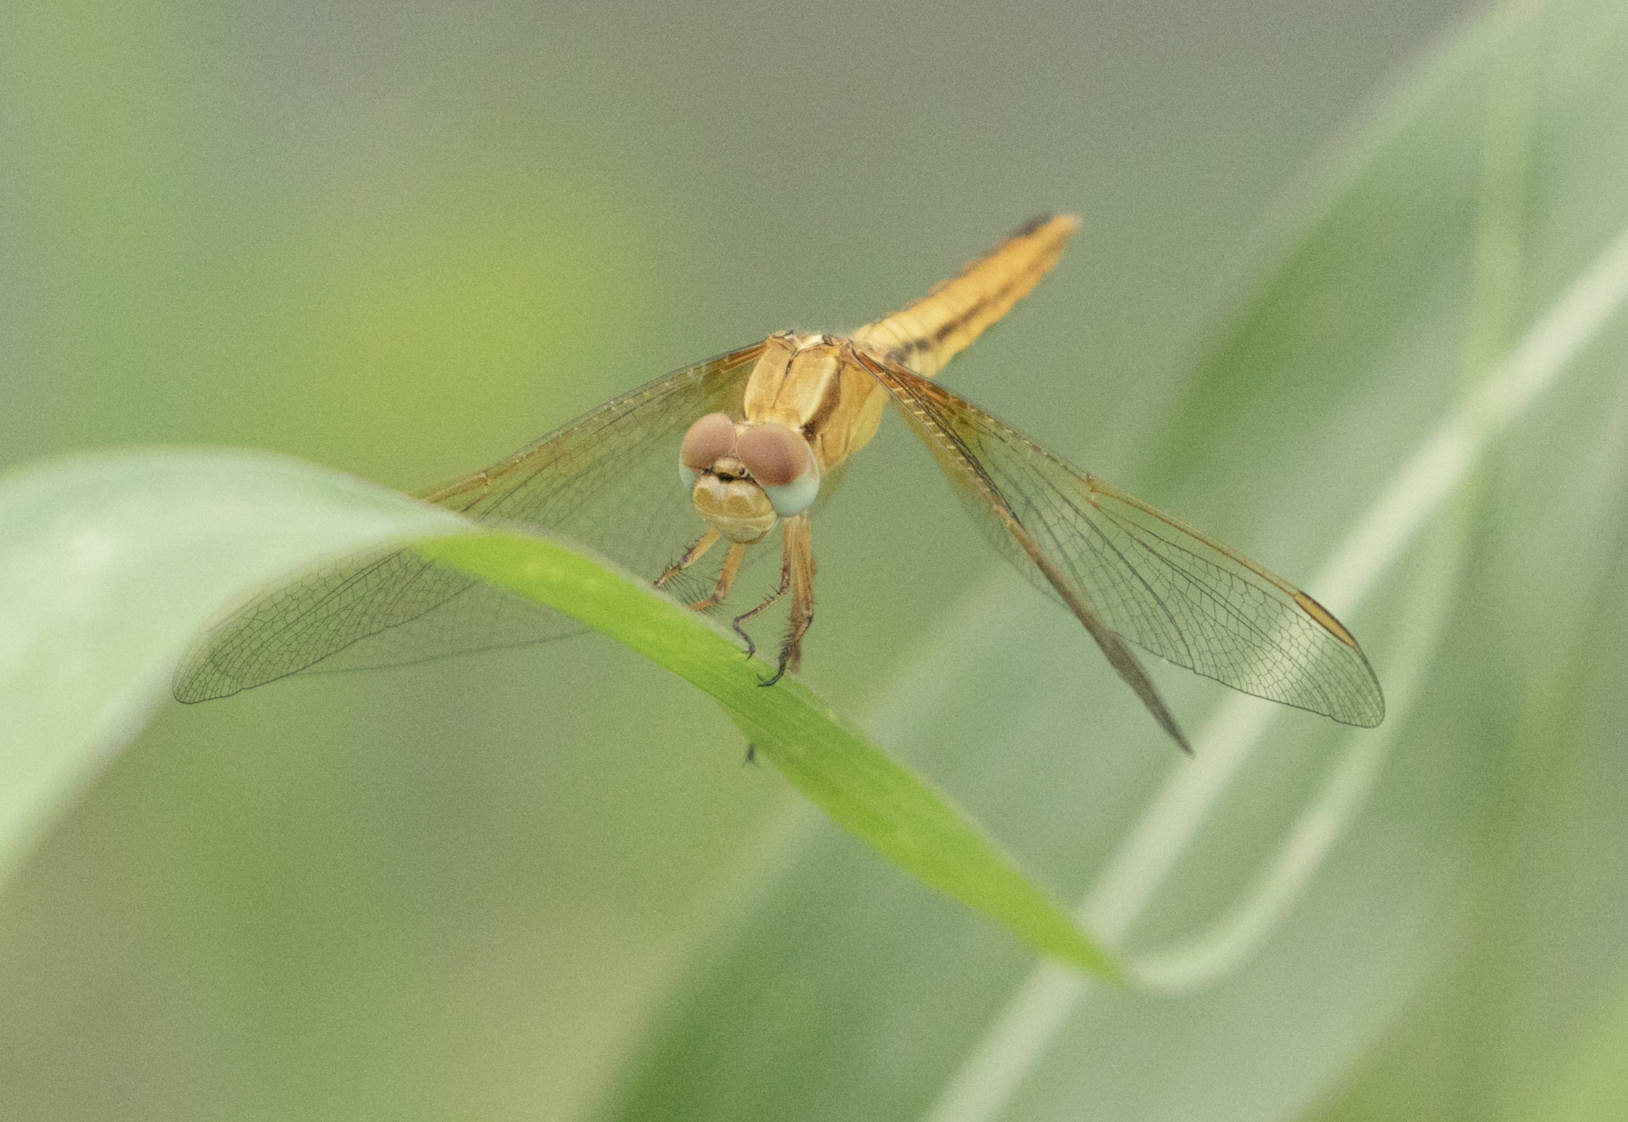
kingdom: Animalia
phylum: Arthropoda
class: Insecta
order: Odonata
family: Libellulidae
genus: Crocothemis
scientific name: Crocothemis erythraea
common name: Scarlet dragonfly
